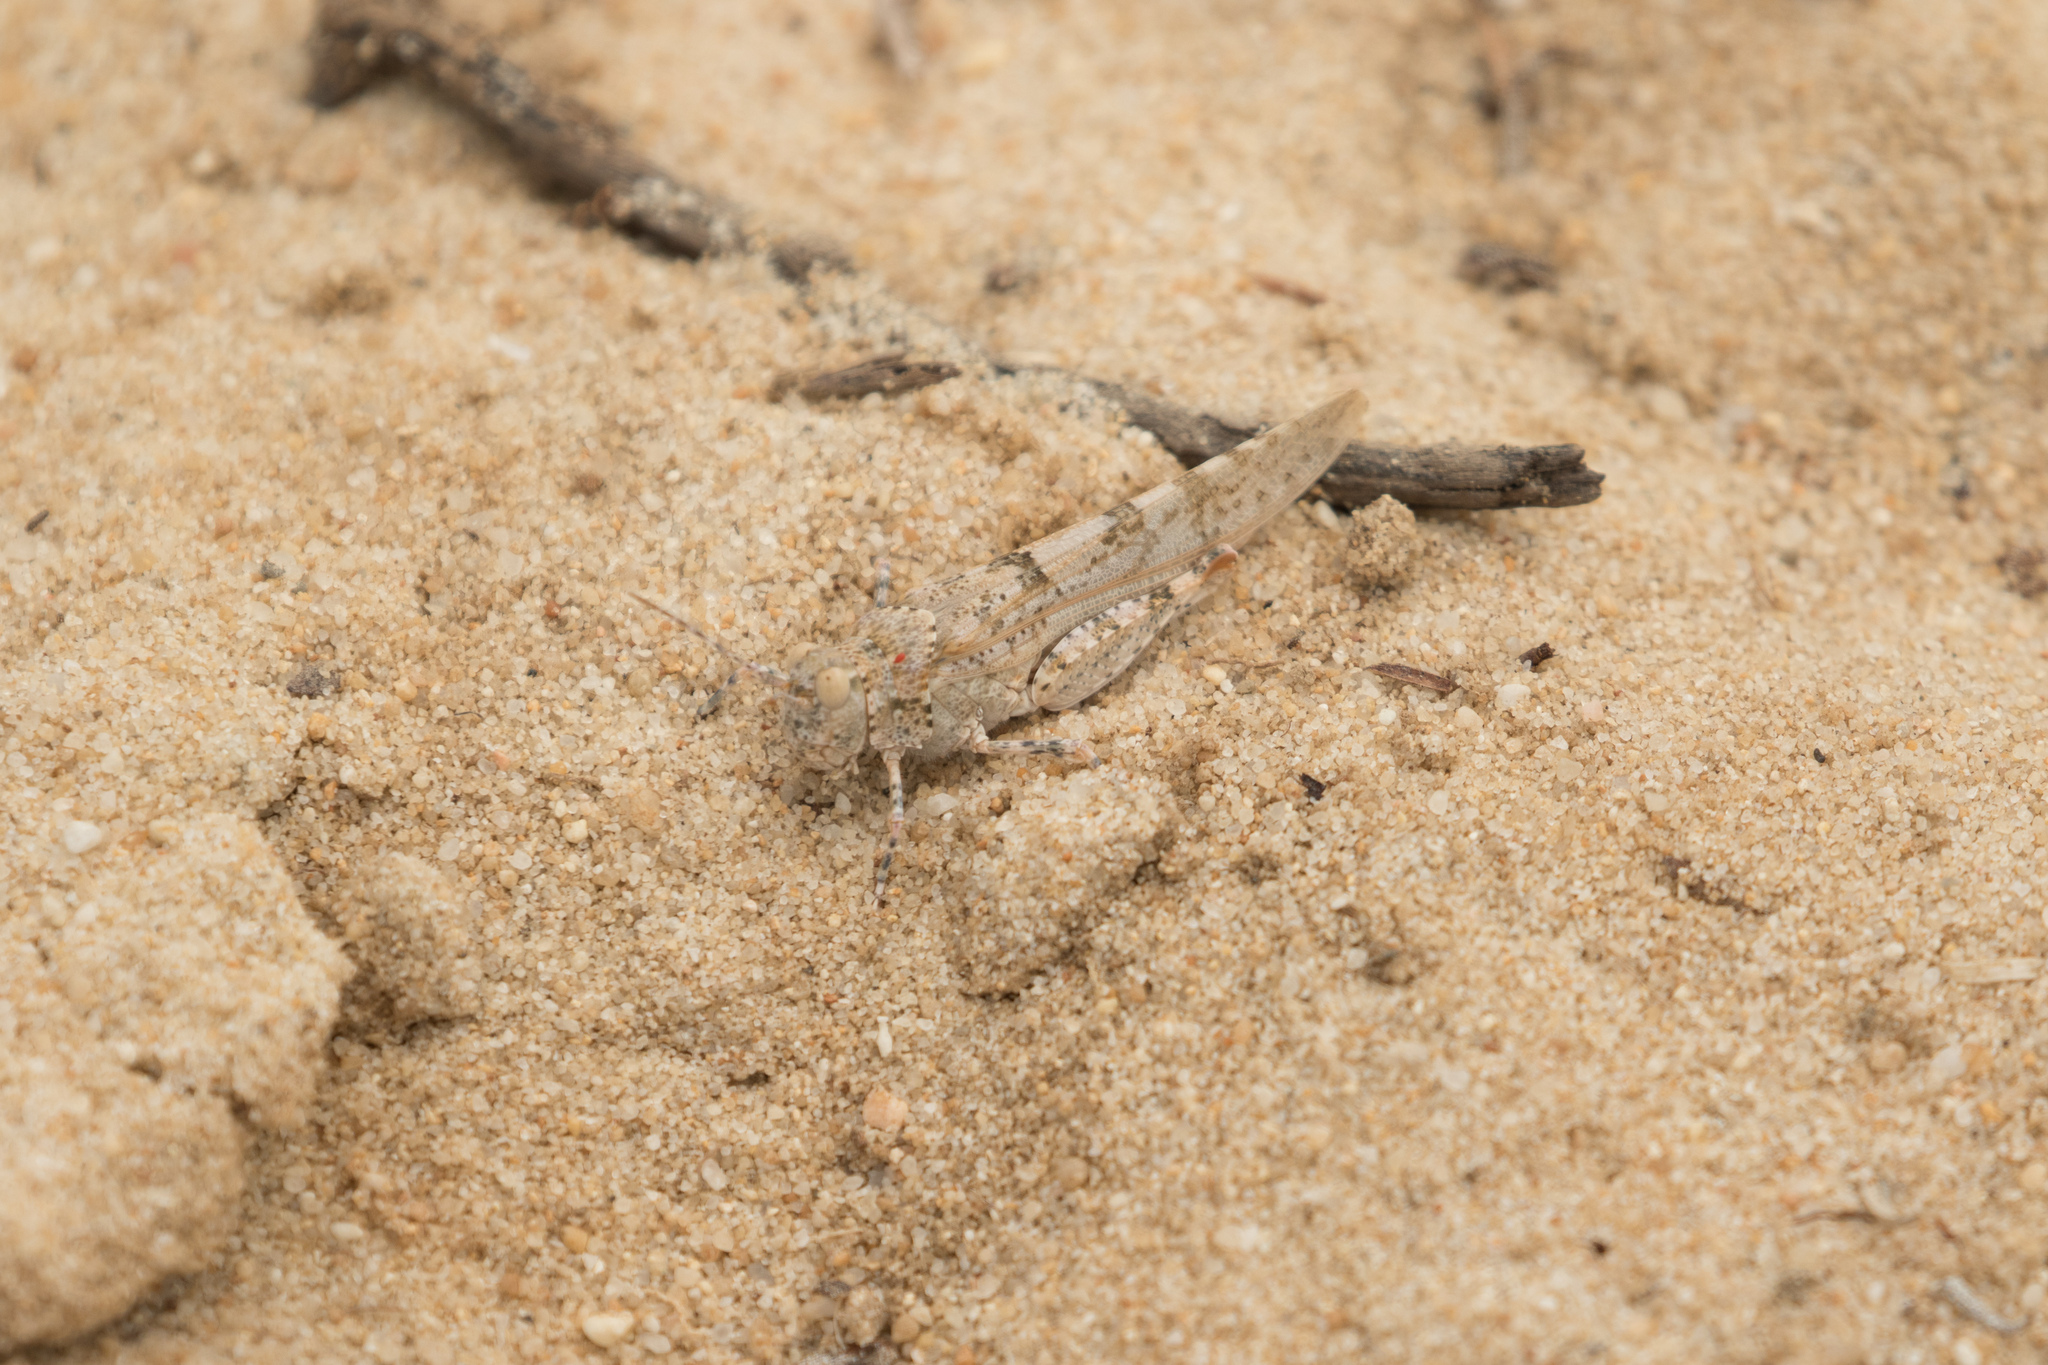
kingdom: Animalia
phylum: Arthropoda
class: Insecta
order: Orthoptera
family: Acrididae
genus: Sphingonotus
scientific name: Sphingonotus imitans
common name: Algarve sand grasshopper
